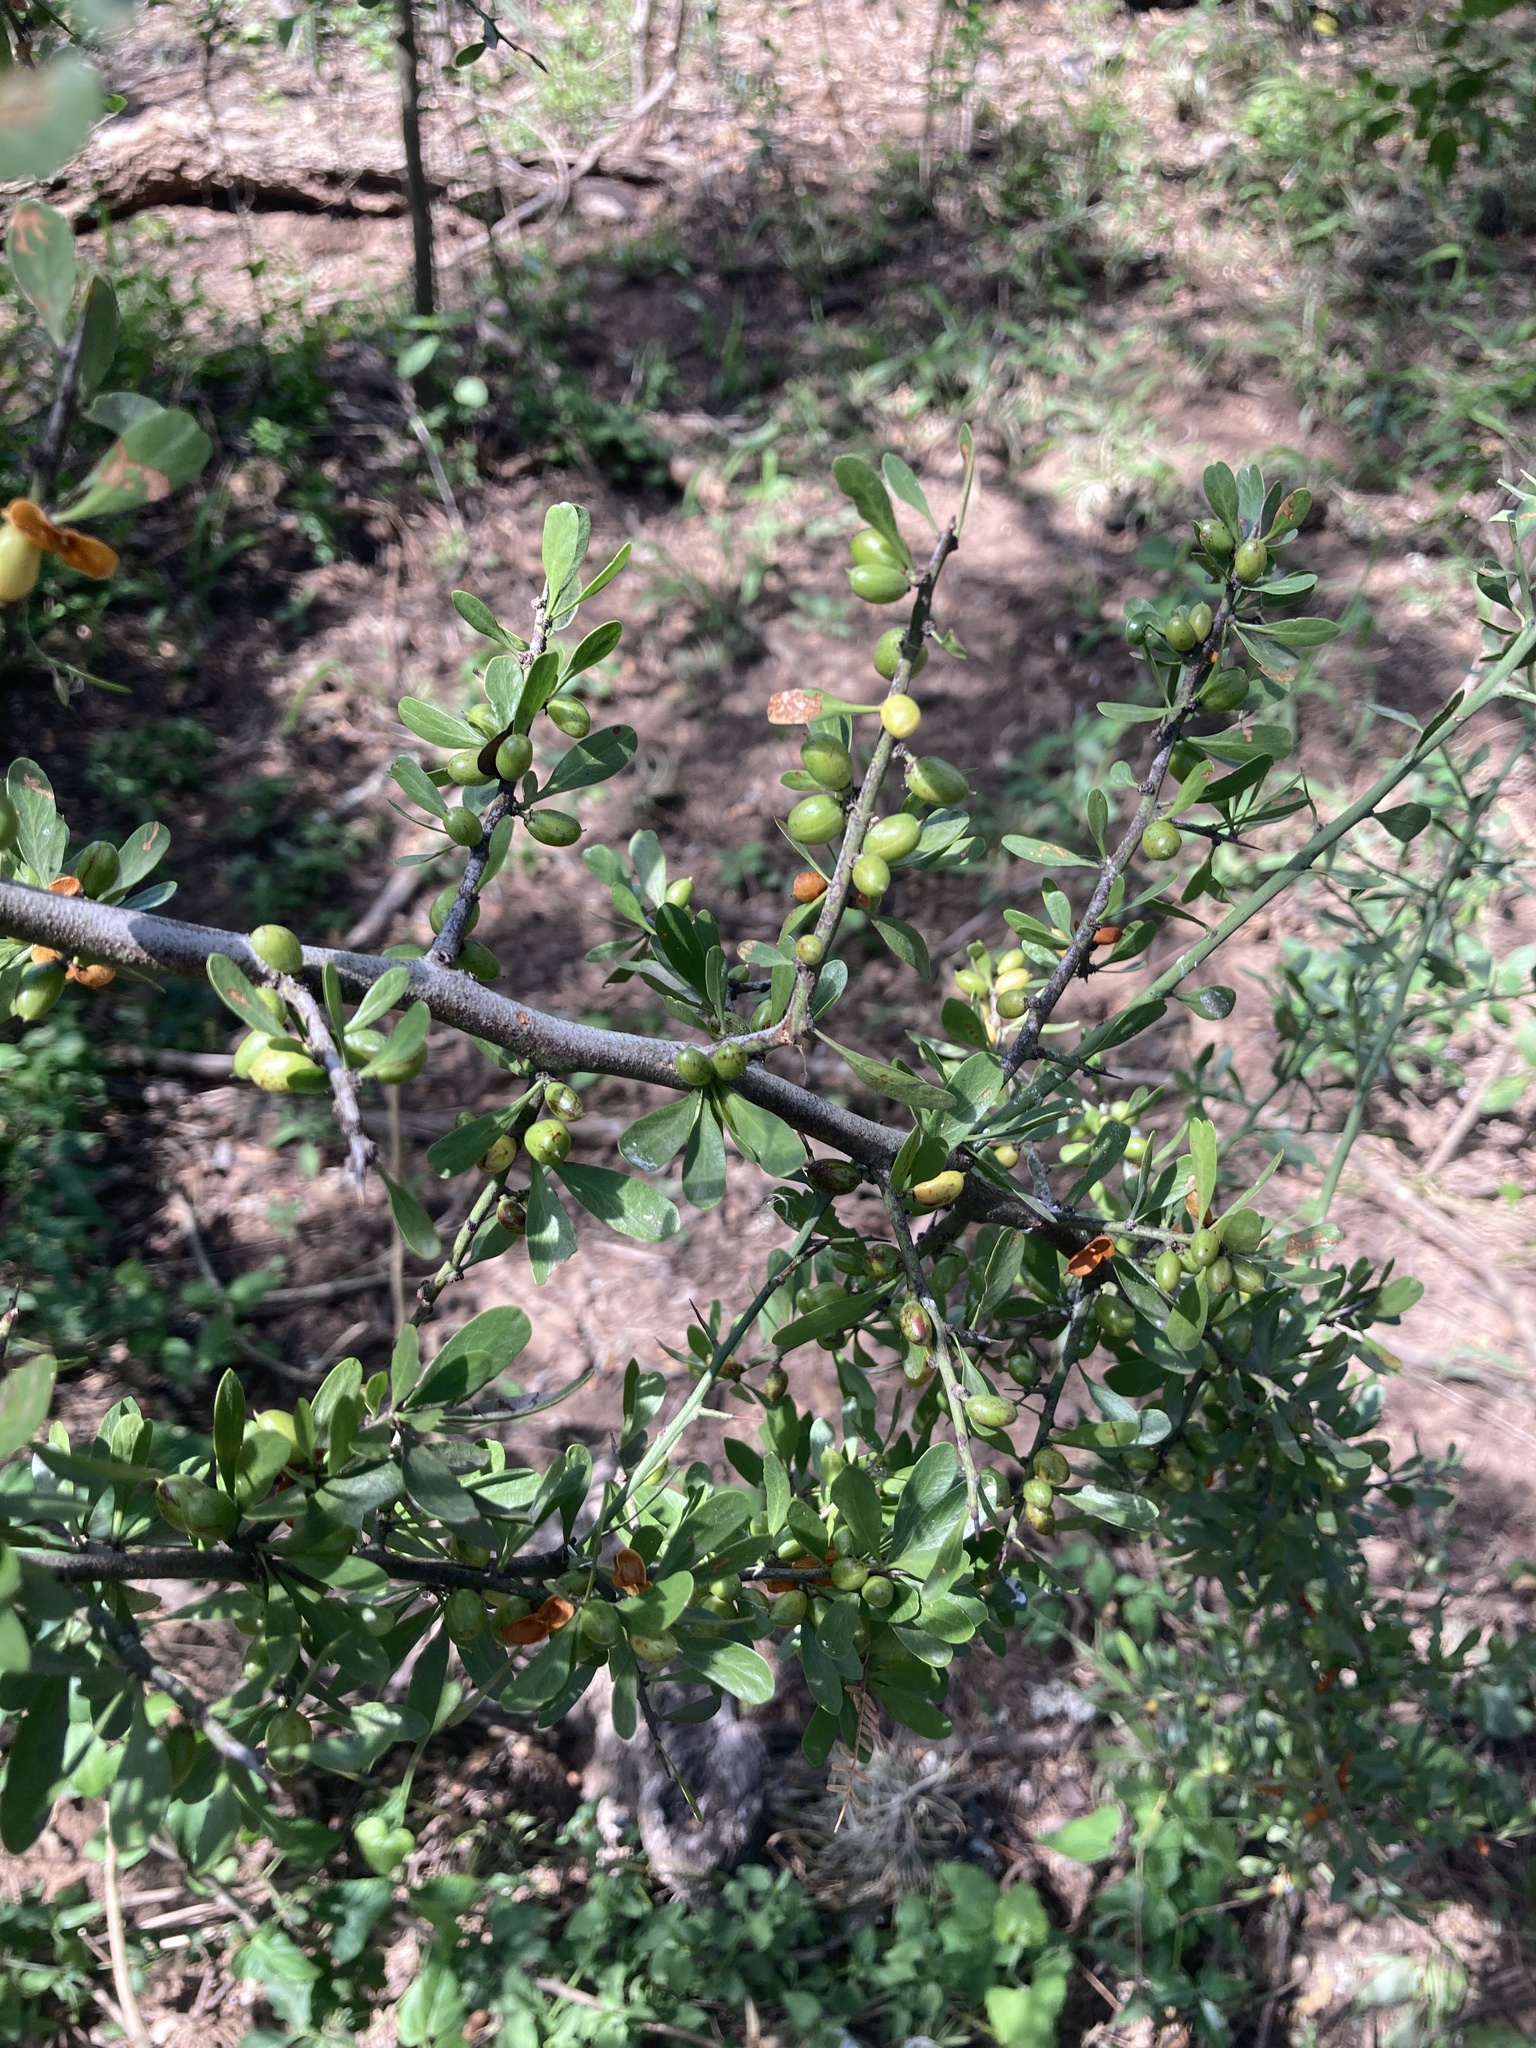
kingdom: Plantae
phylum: Tracheophyta
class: Magnoliopsida
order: Celastrales
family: Celastraceae
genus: Monteverdia
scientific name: Monteverdia spinosa
